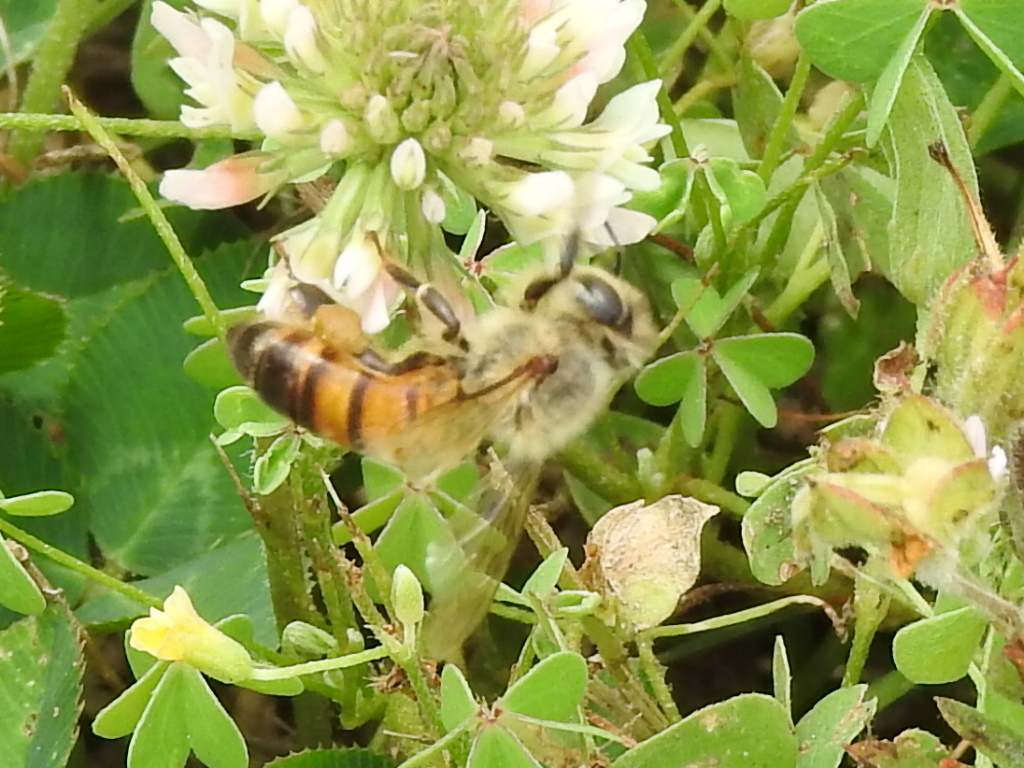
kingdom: Animalia
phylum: Arthropoda
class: Insecta
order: Hymenoptera
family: Apidae
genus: Apis
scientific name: Apis mellifera
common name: Honey bee
